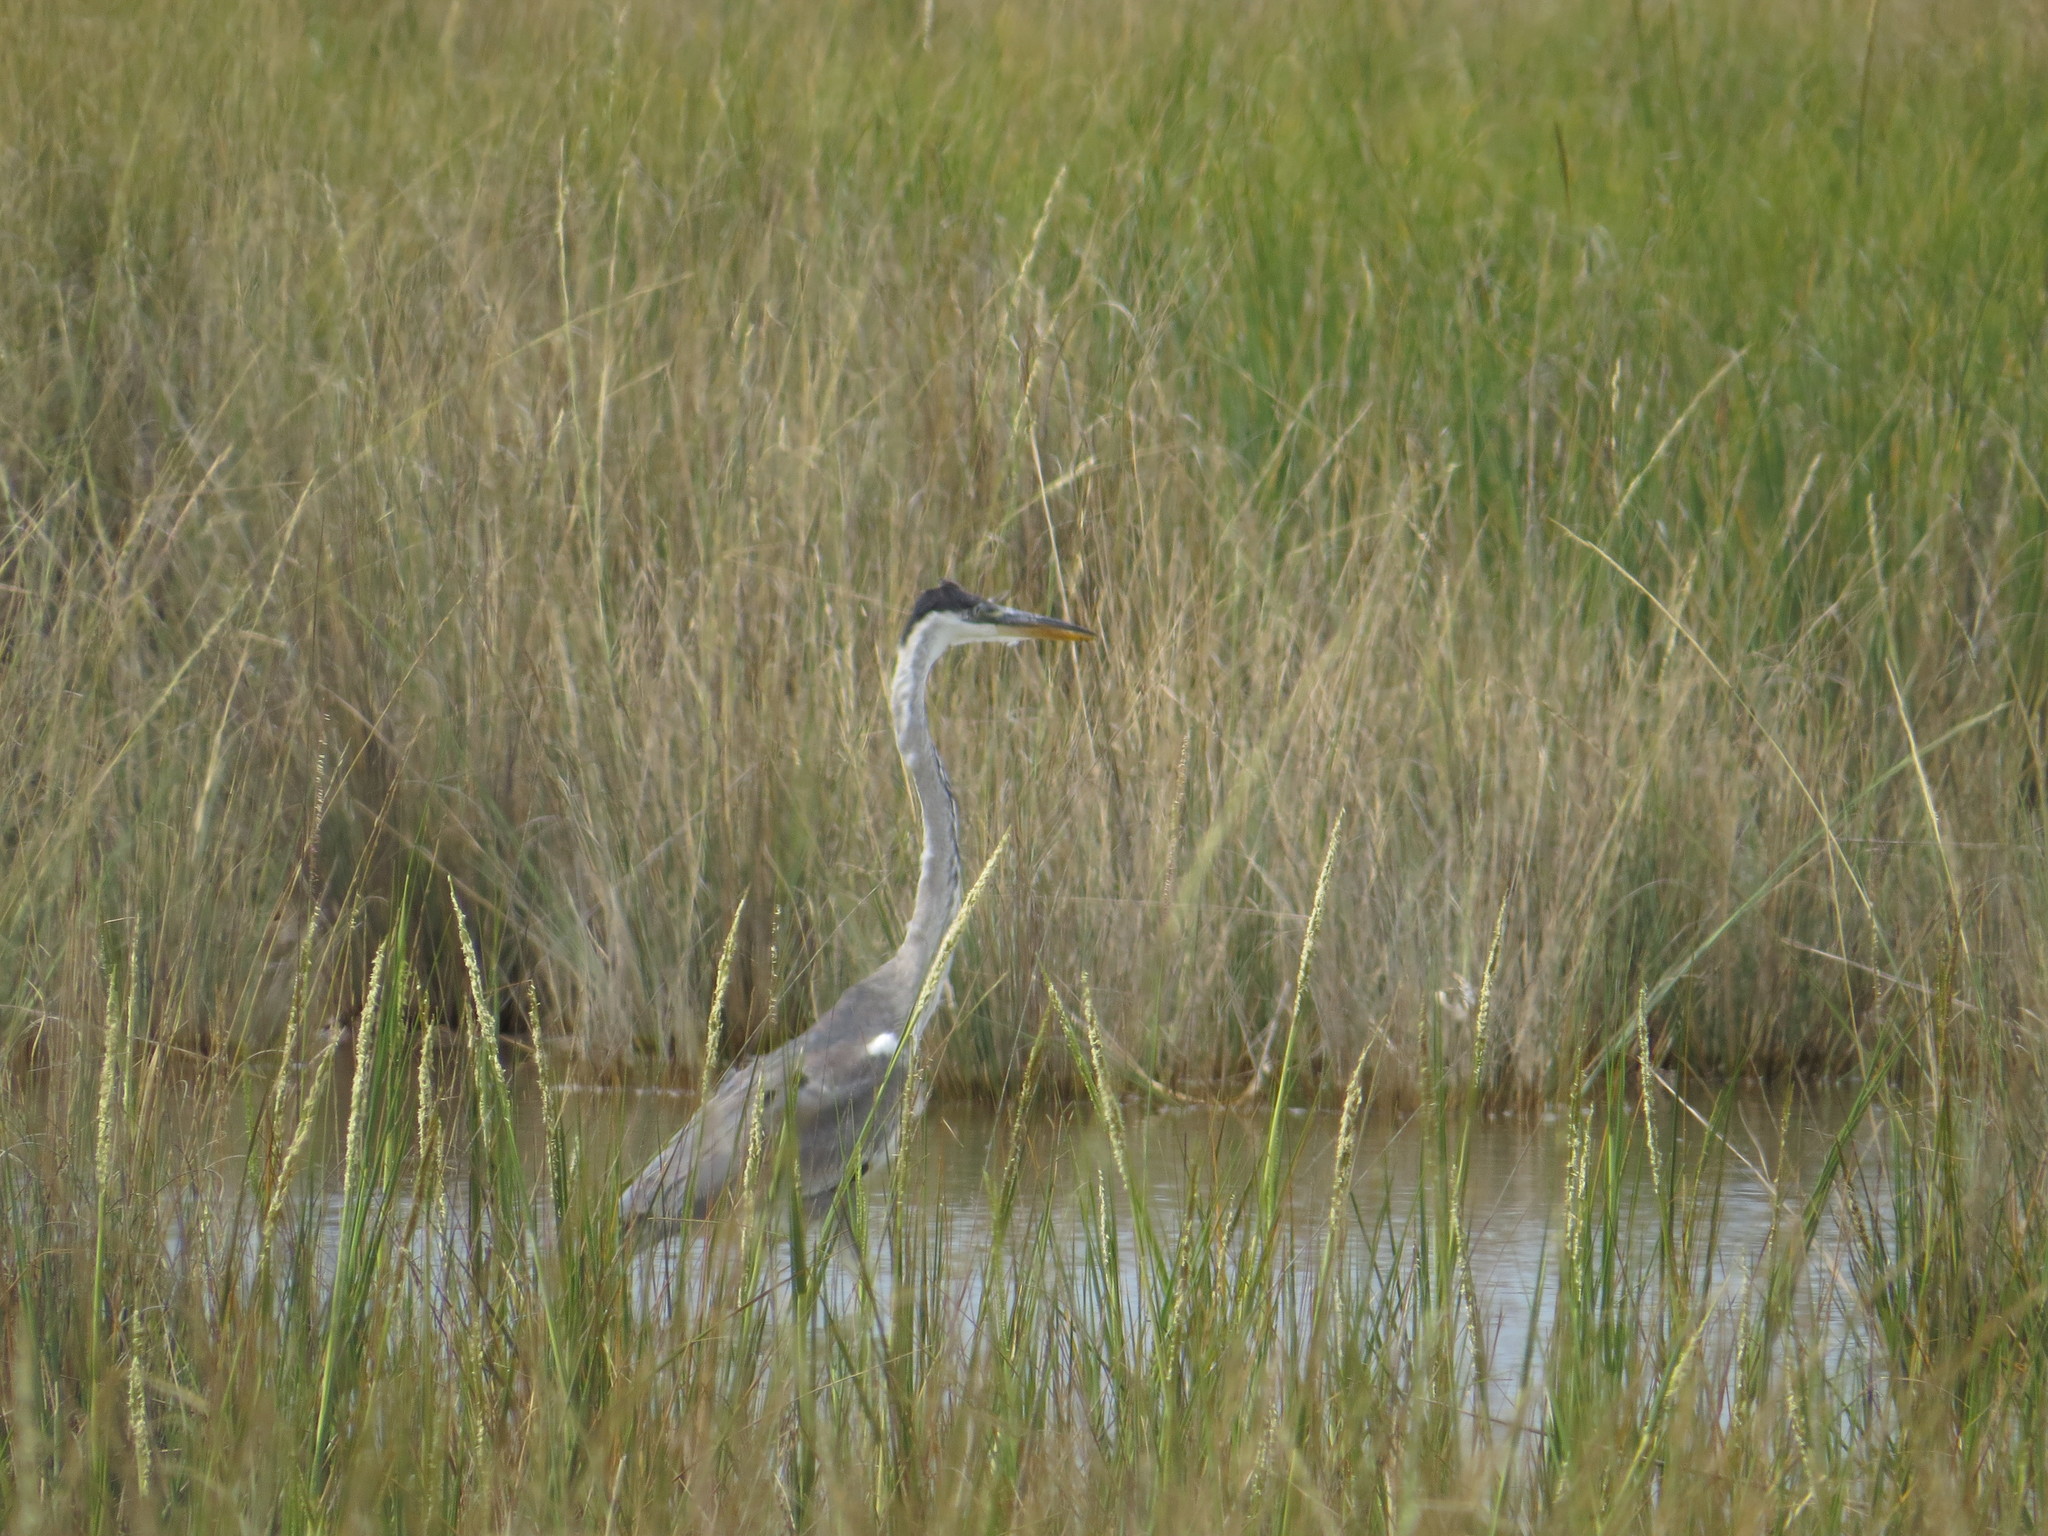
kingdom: Animalia
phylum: Chordata
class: Aves
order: Pelecaniformes
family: Ardeidae
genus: Ardea
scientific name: Ardea cocoi
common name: Cocoi heron
